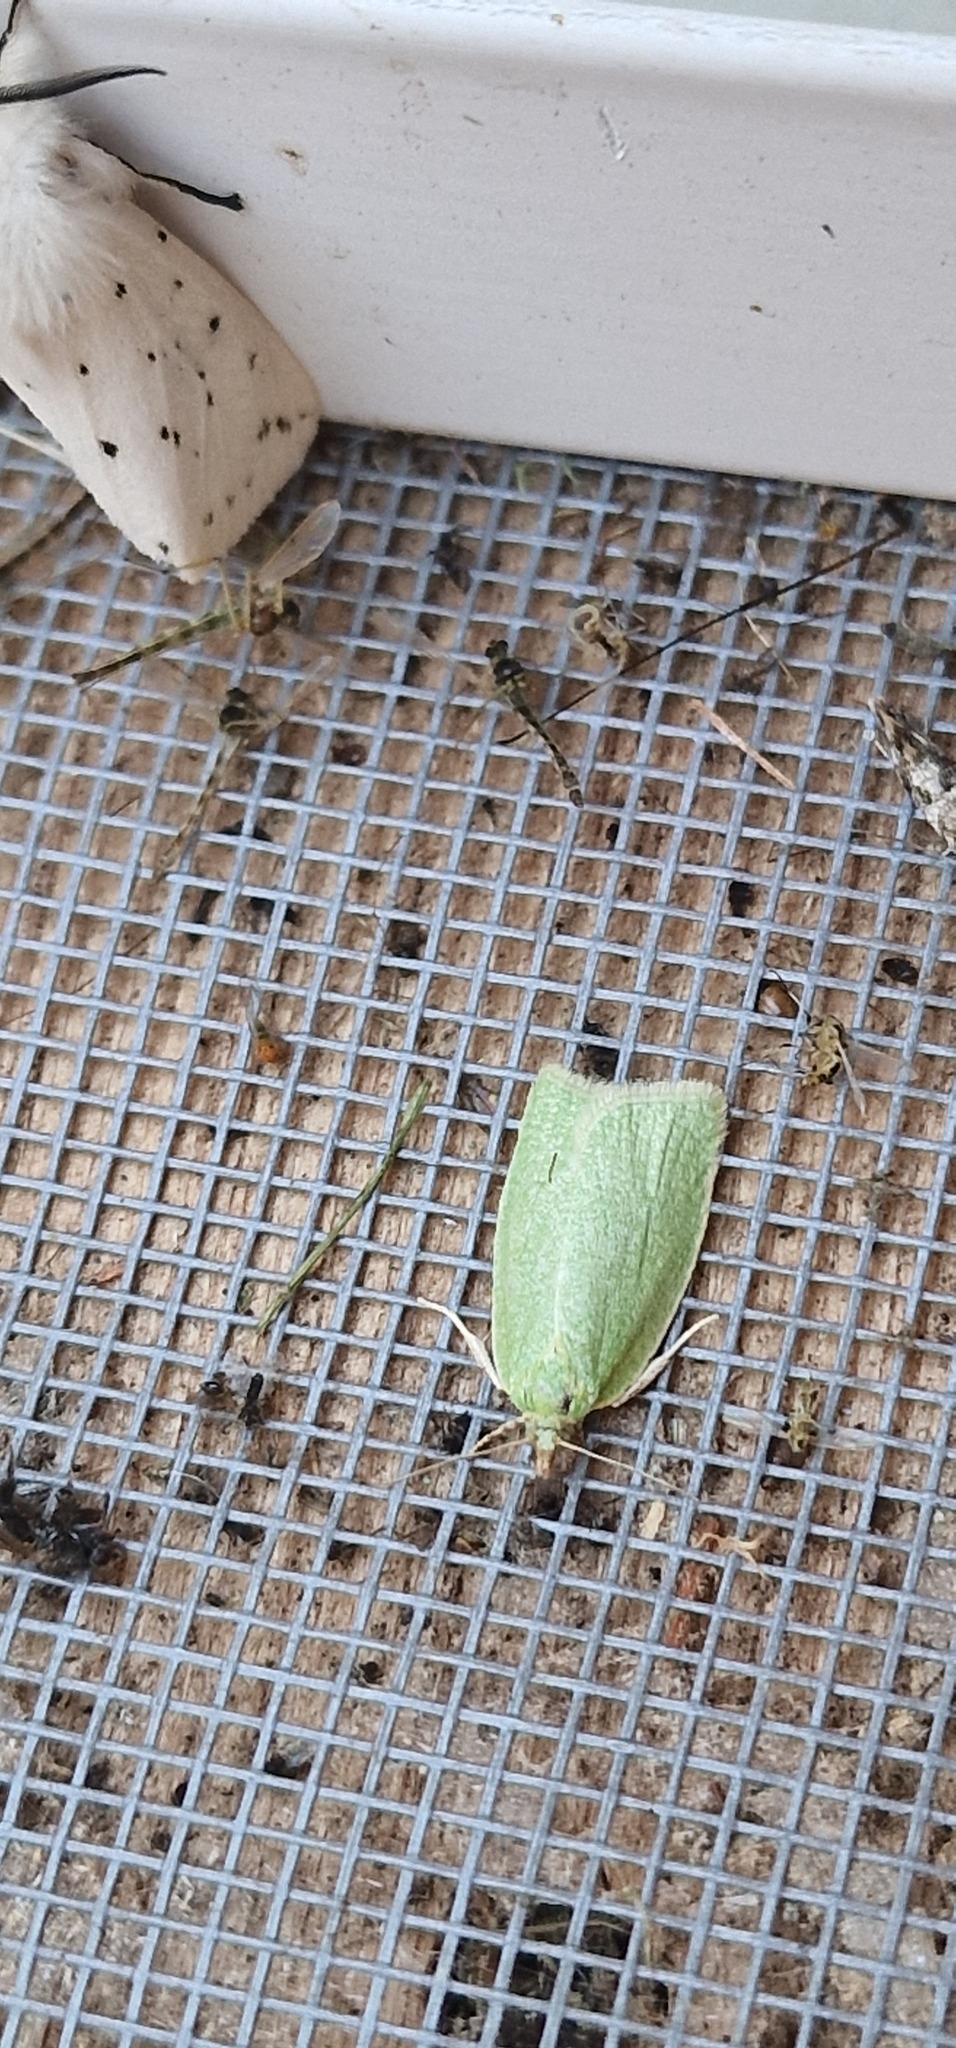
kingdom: Animalia
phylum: Arthropoda
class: Insecta
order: Lepidoptera
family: Tortricidae
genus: Tortrix
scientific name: Tortrix viridana
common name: Green oak tortrix
